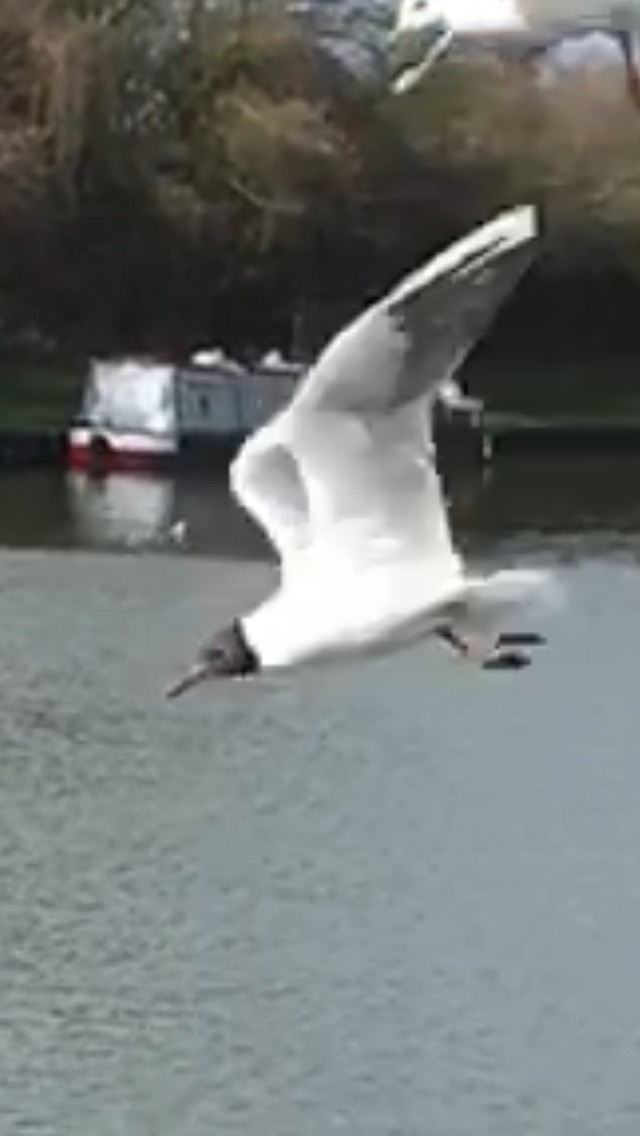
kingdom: Animalia
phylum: Chordata
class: Aves
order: Charadriiformes
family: Laridae
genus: Chroicocephalus
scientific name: Chroicocephalus ridibundus
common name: Black-headed gull
